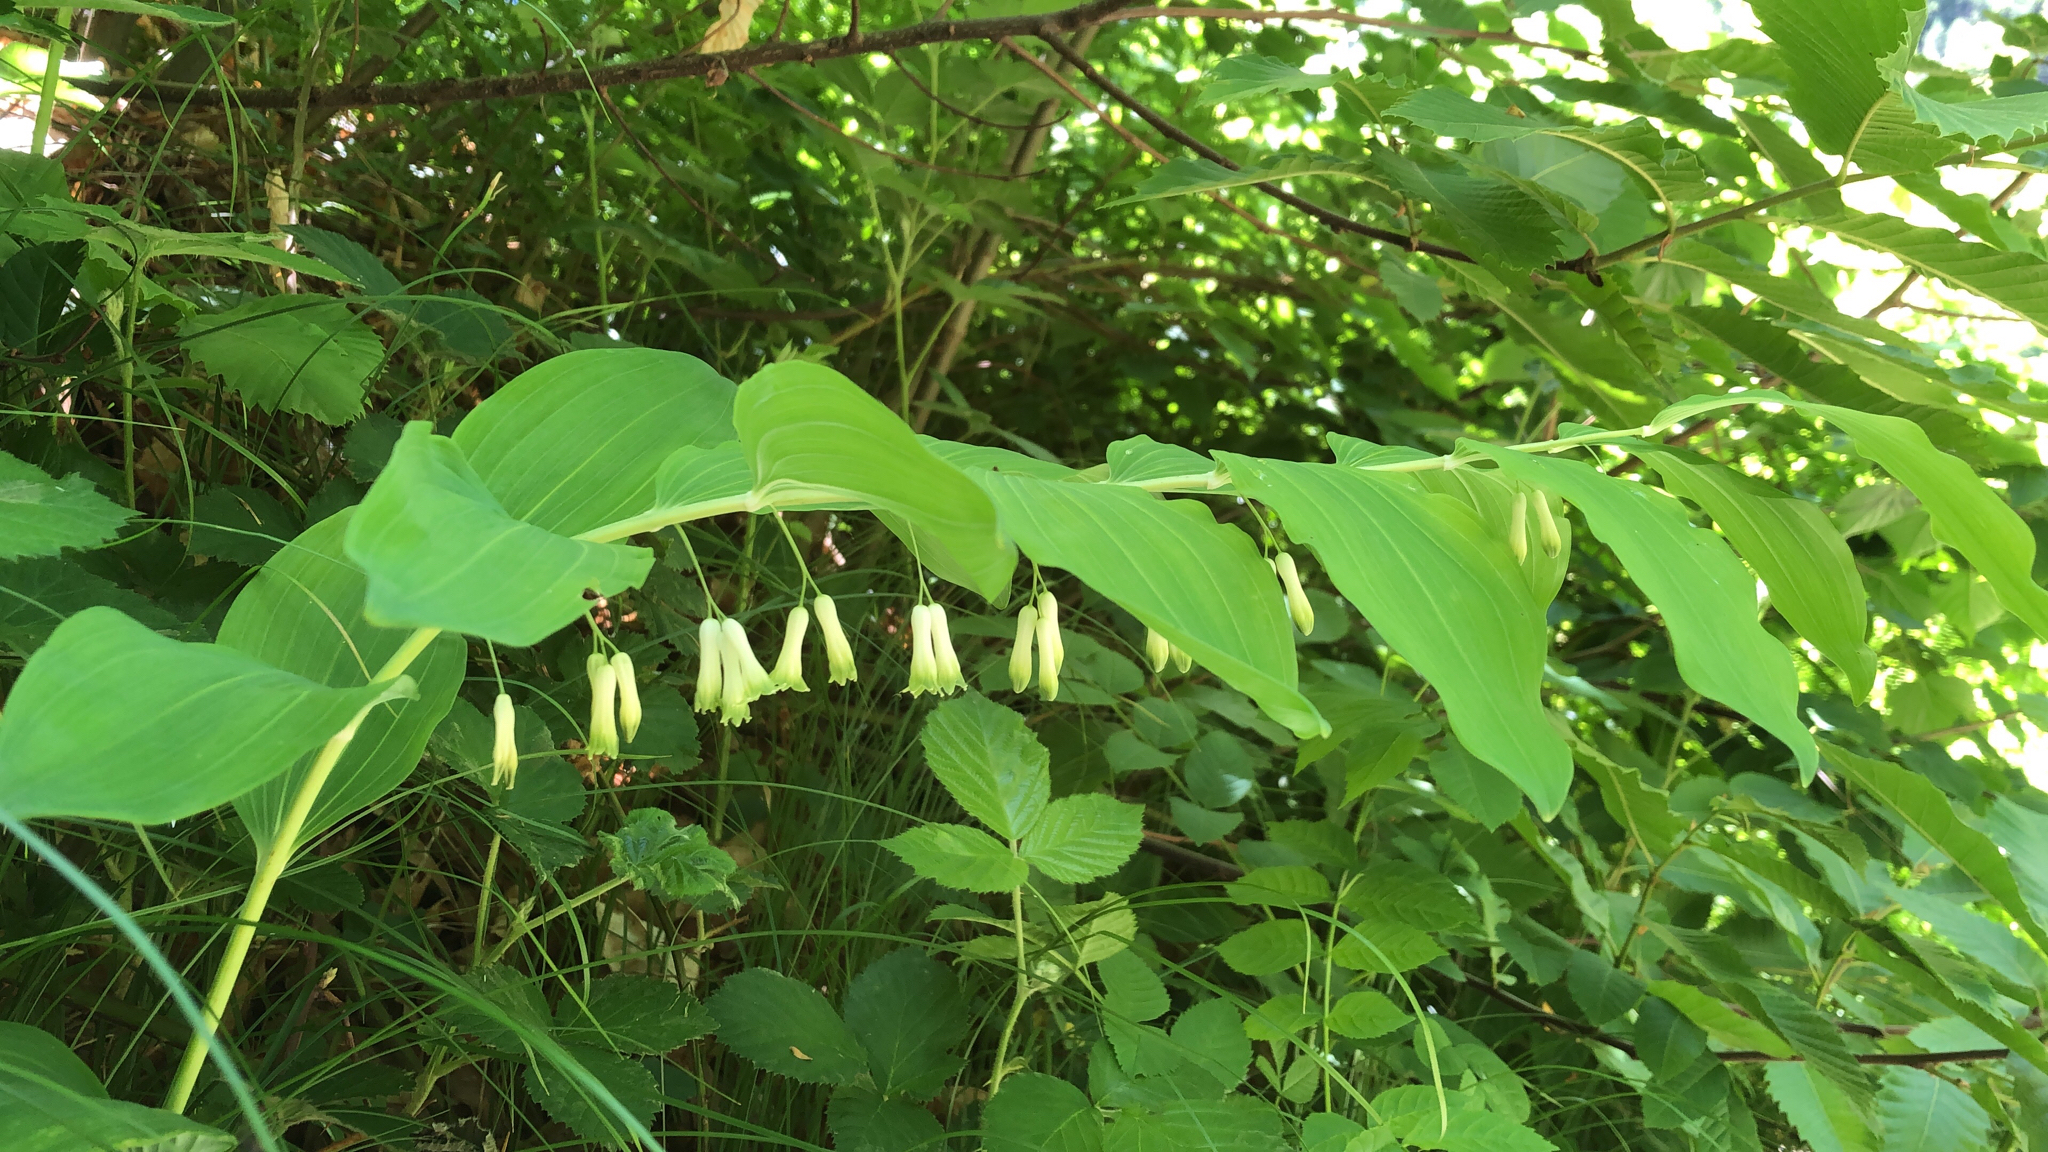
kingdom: Plantae
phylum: Tracheophyta
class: Liliopsida
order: Asparagales
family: Asparagaceae
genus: Polygonatum
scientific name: Polygonatum multiflorum
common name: Solomon's-seal
